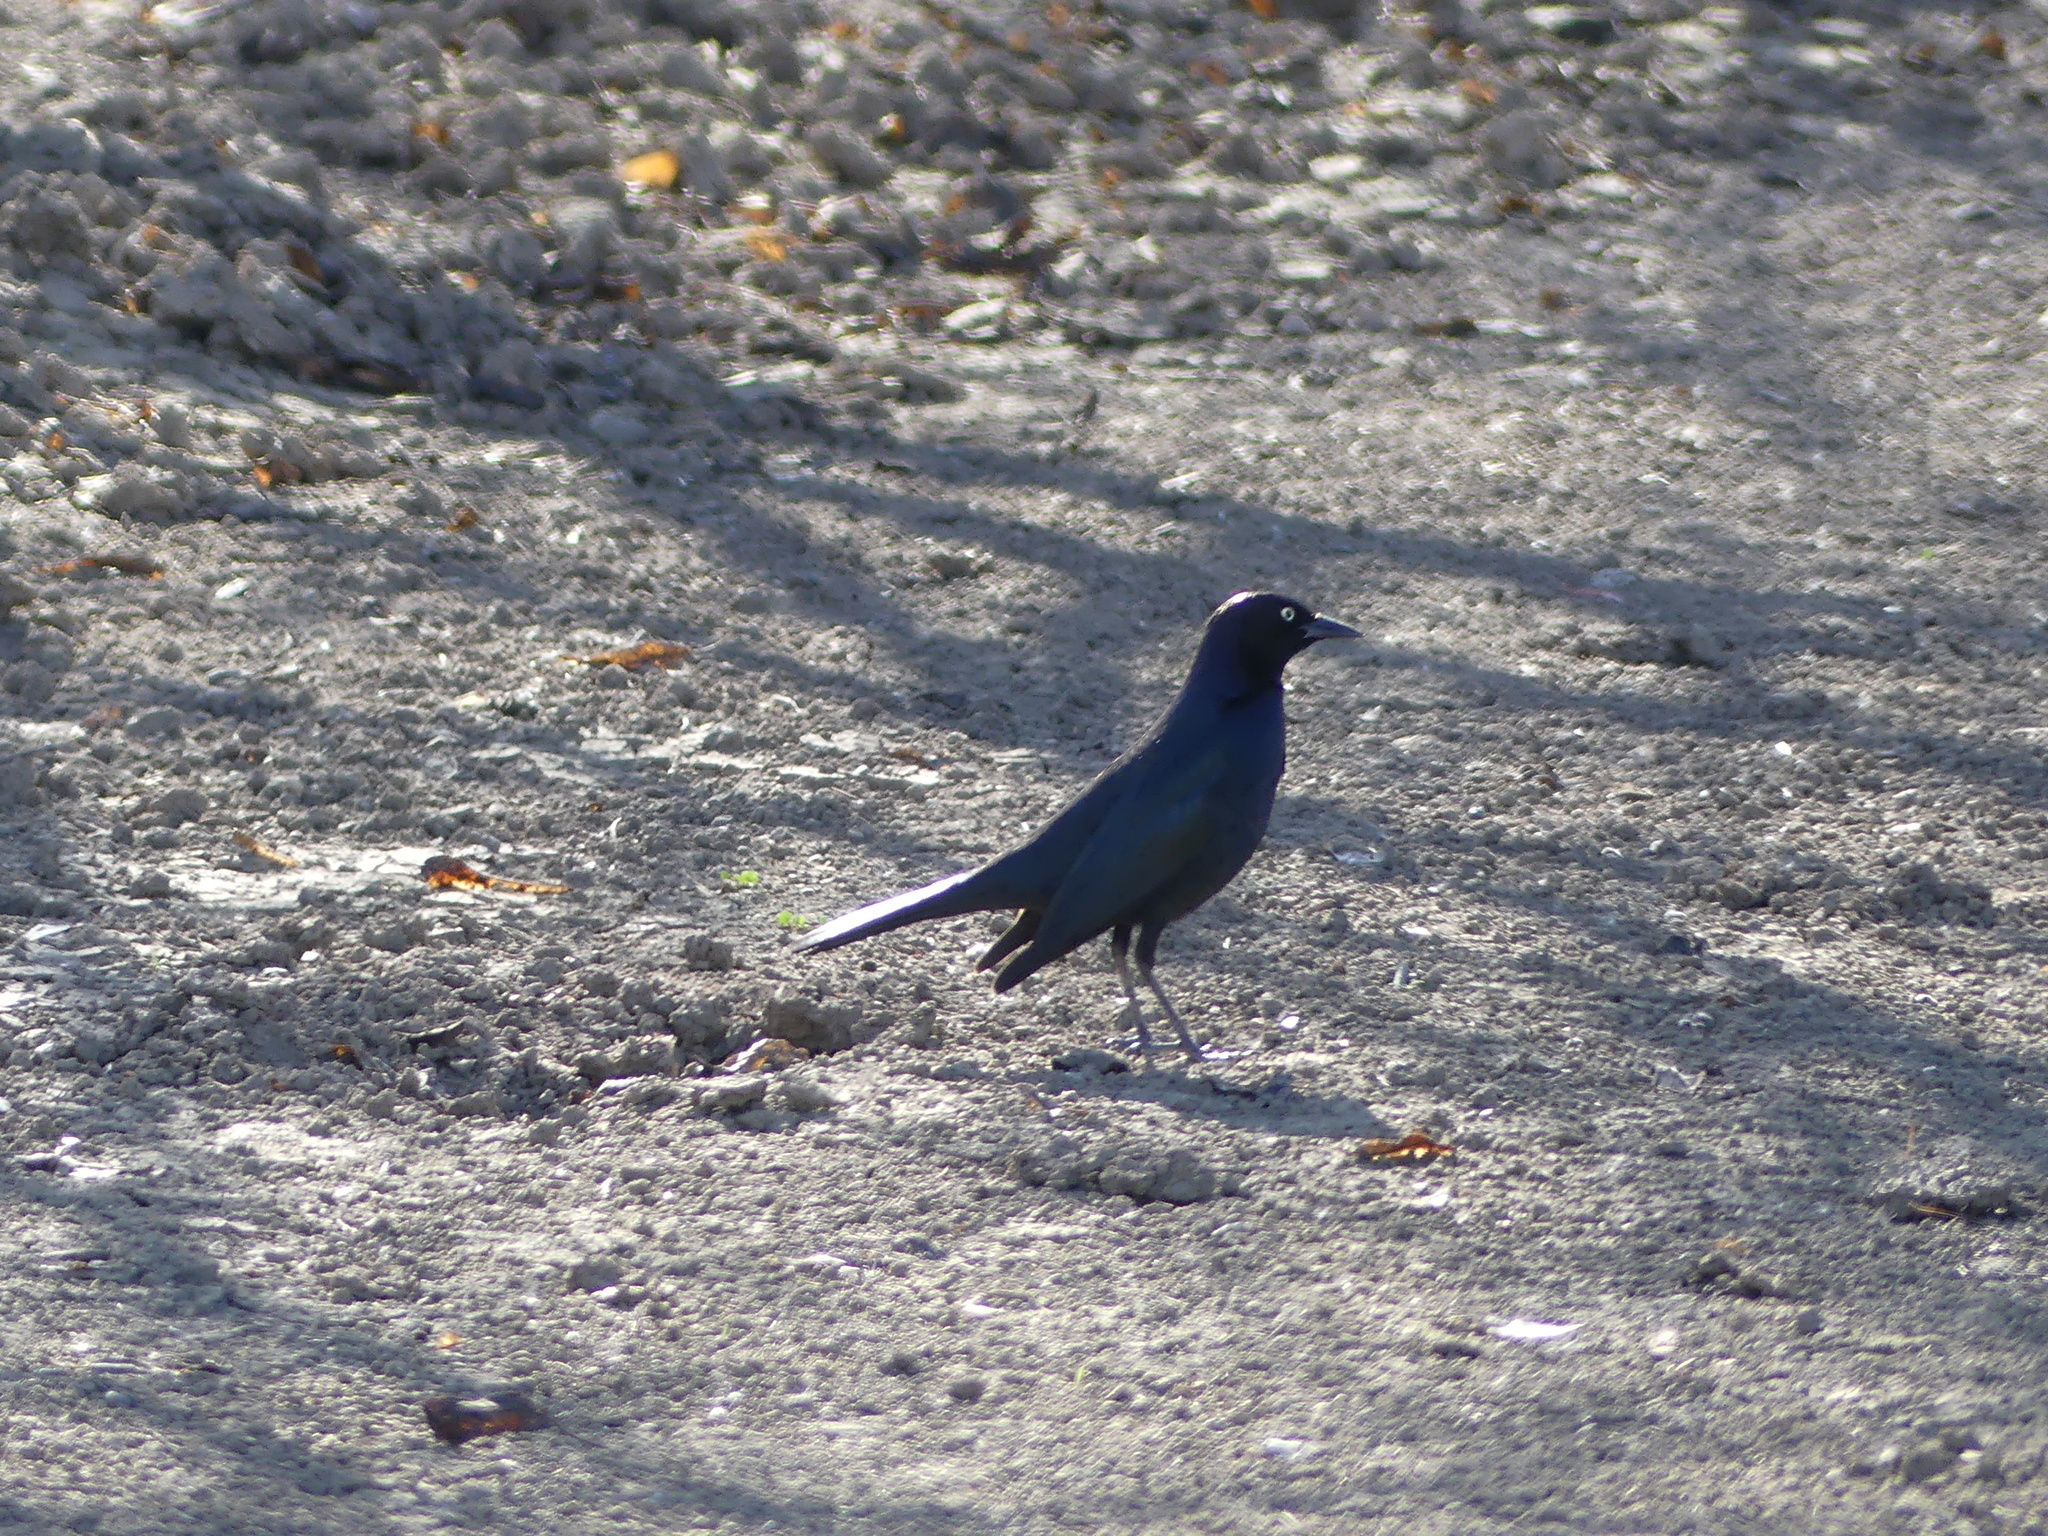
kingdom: Animalia
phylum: Chordata
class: Aves
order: Passeriformes
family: Icteridae
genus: Euphagus
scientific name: Euphagus cyanocephalus
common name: Brewer's blackbird
